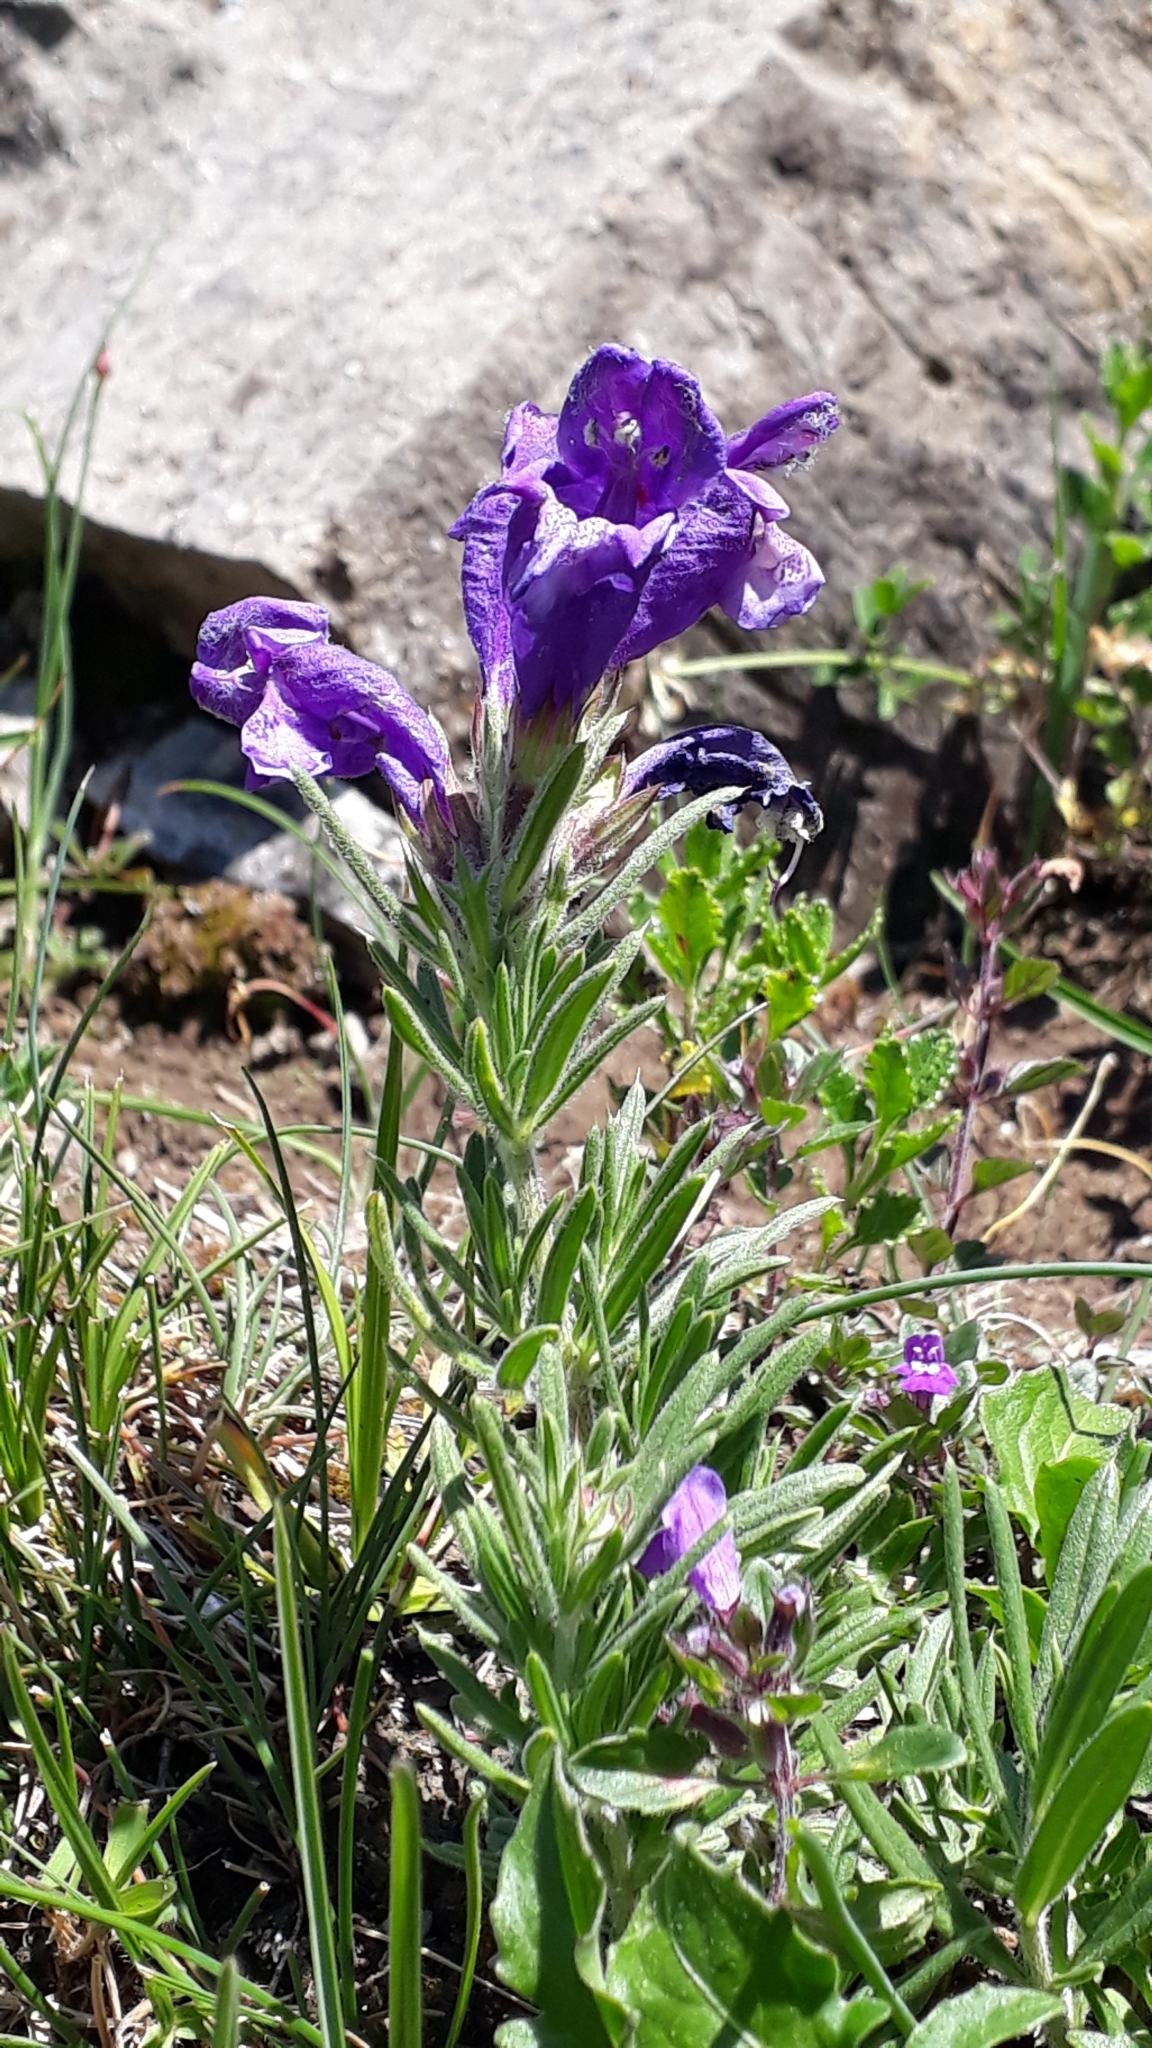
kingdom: Plantae
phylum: Tracheophyta
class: Magnoliopsida
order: Lamiales
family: Lamiaceae
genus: Dracocephalum
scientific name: Dracocephalum austriacum
